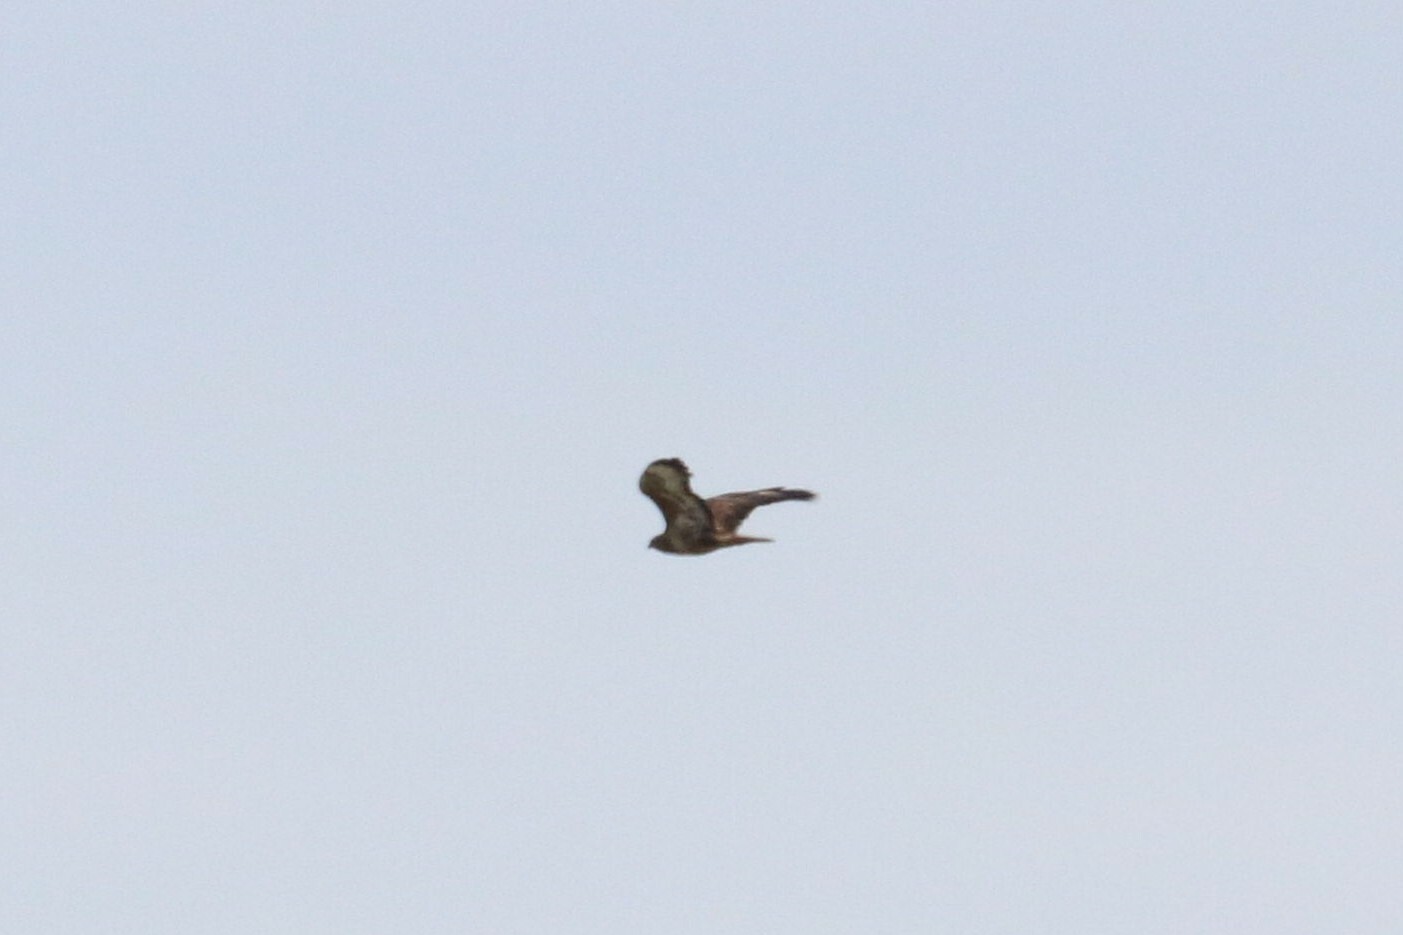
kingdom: Animalia
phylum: Chordata
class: Aves
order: Accipitriformes
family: Accipitridae
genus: Buteo
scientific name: Buteo buteo
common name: Common buzzard
